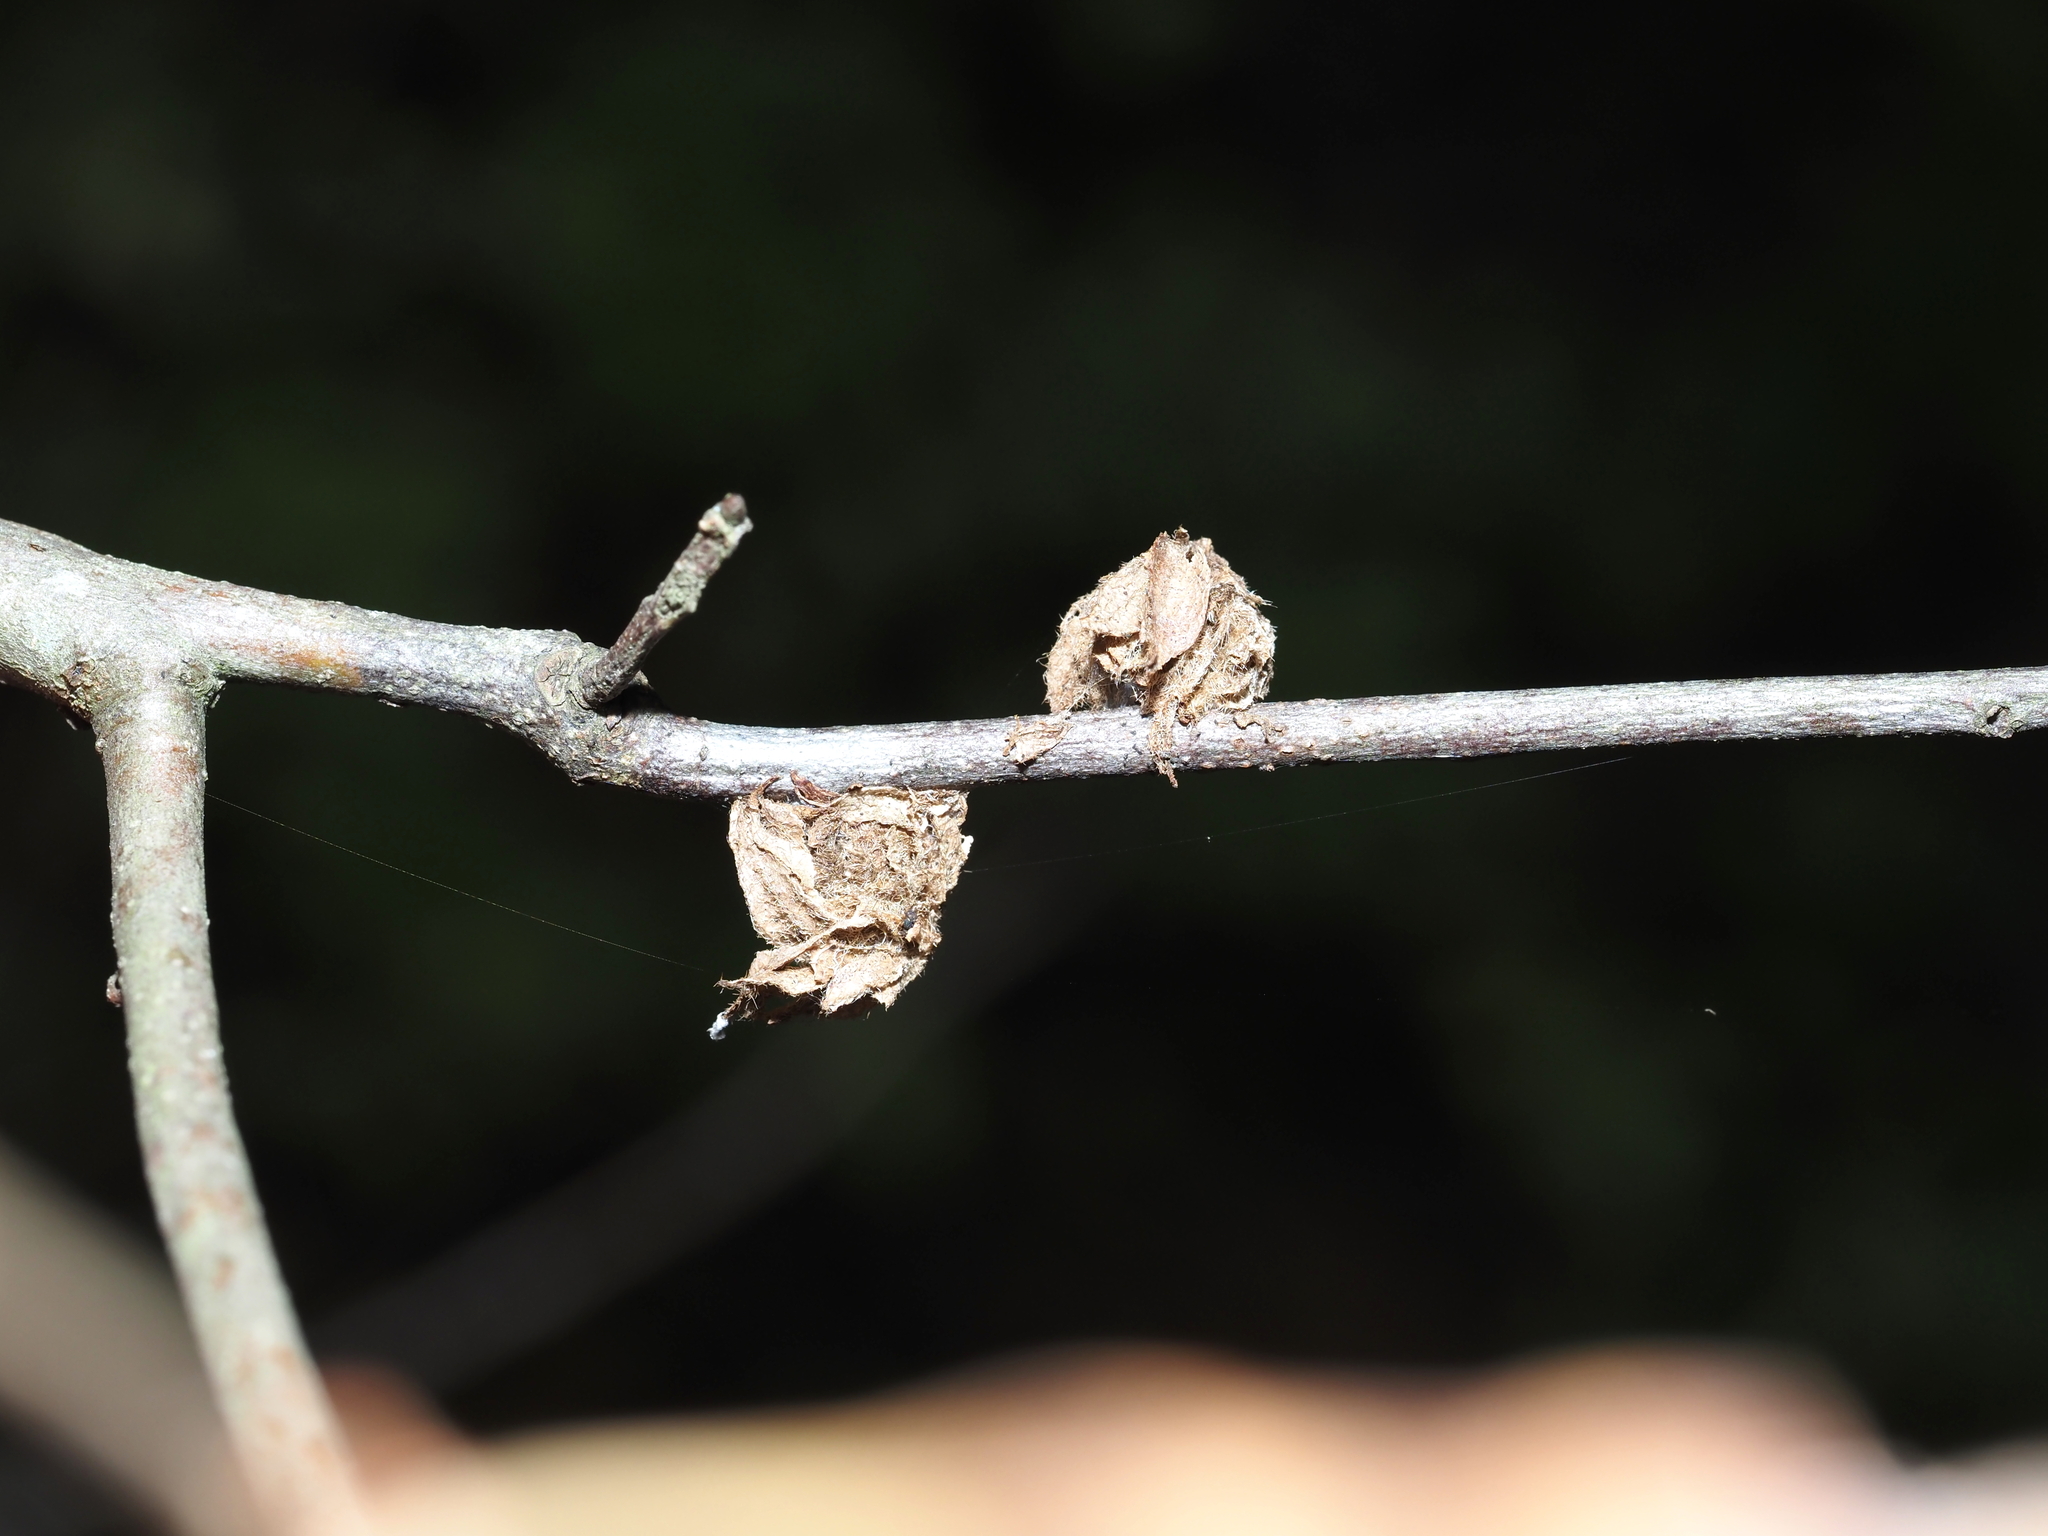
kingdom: Animalia
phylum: Arthropoda
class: Insecta
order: Hymenoptera
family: Cynipidae
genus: Dryocosmus
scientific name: Dryocosmus
